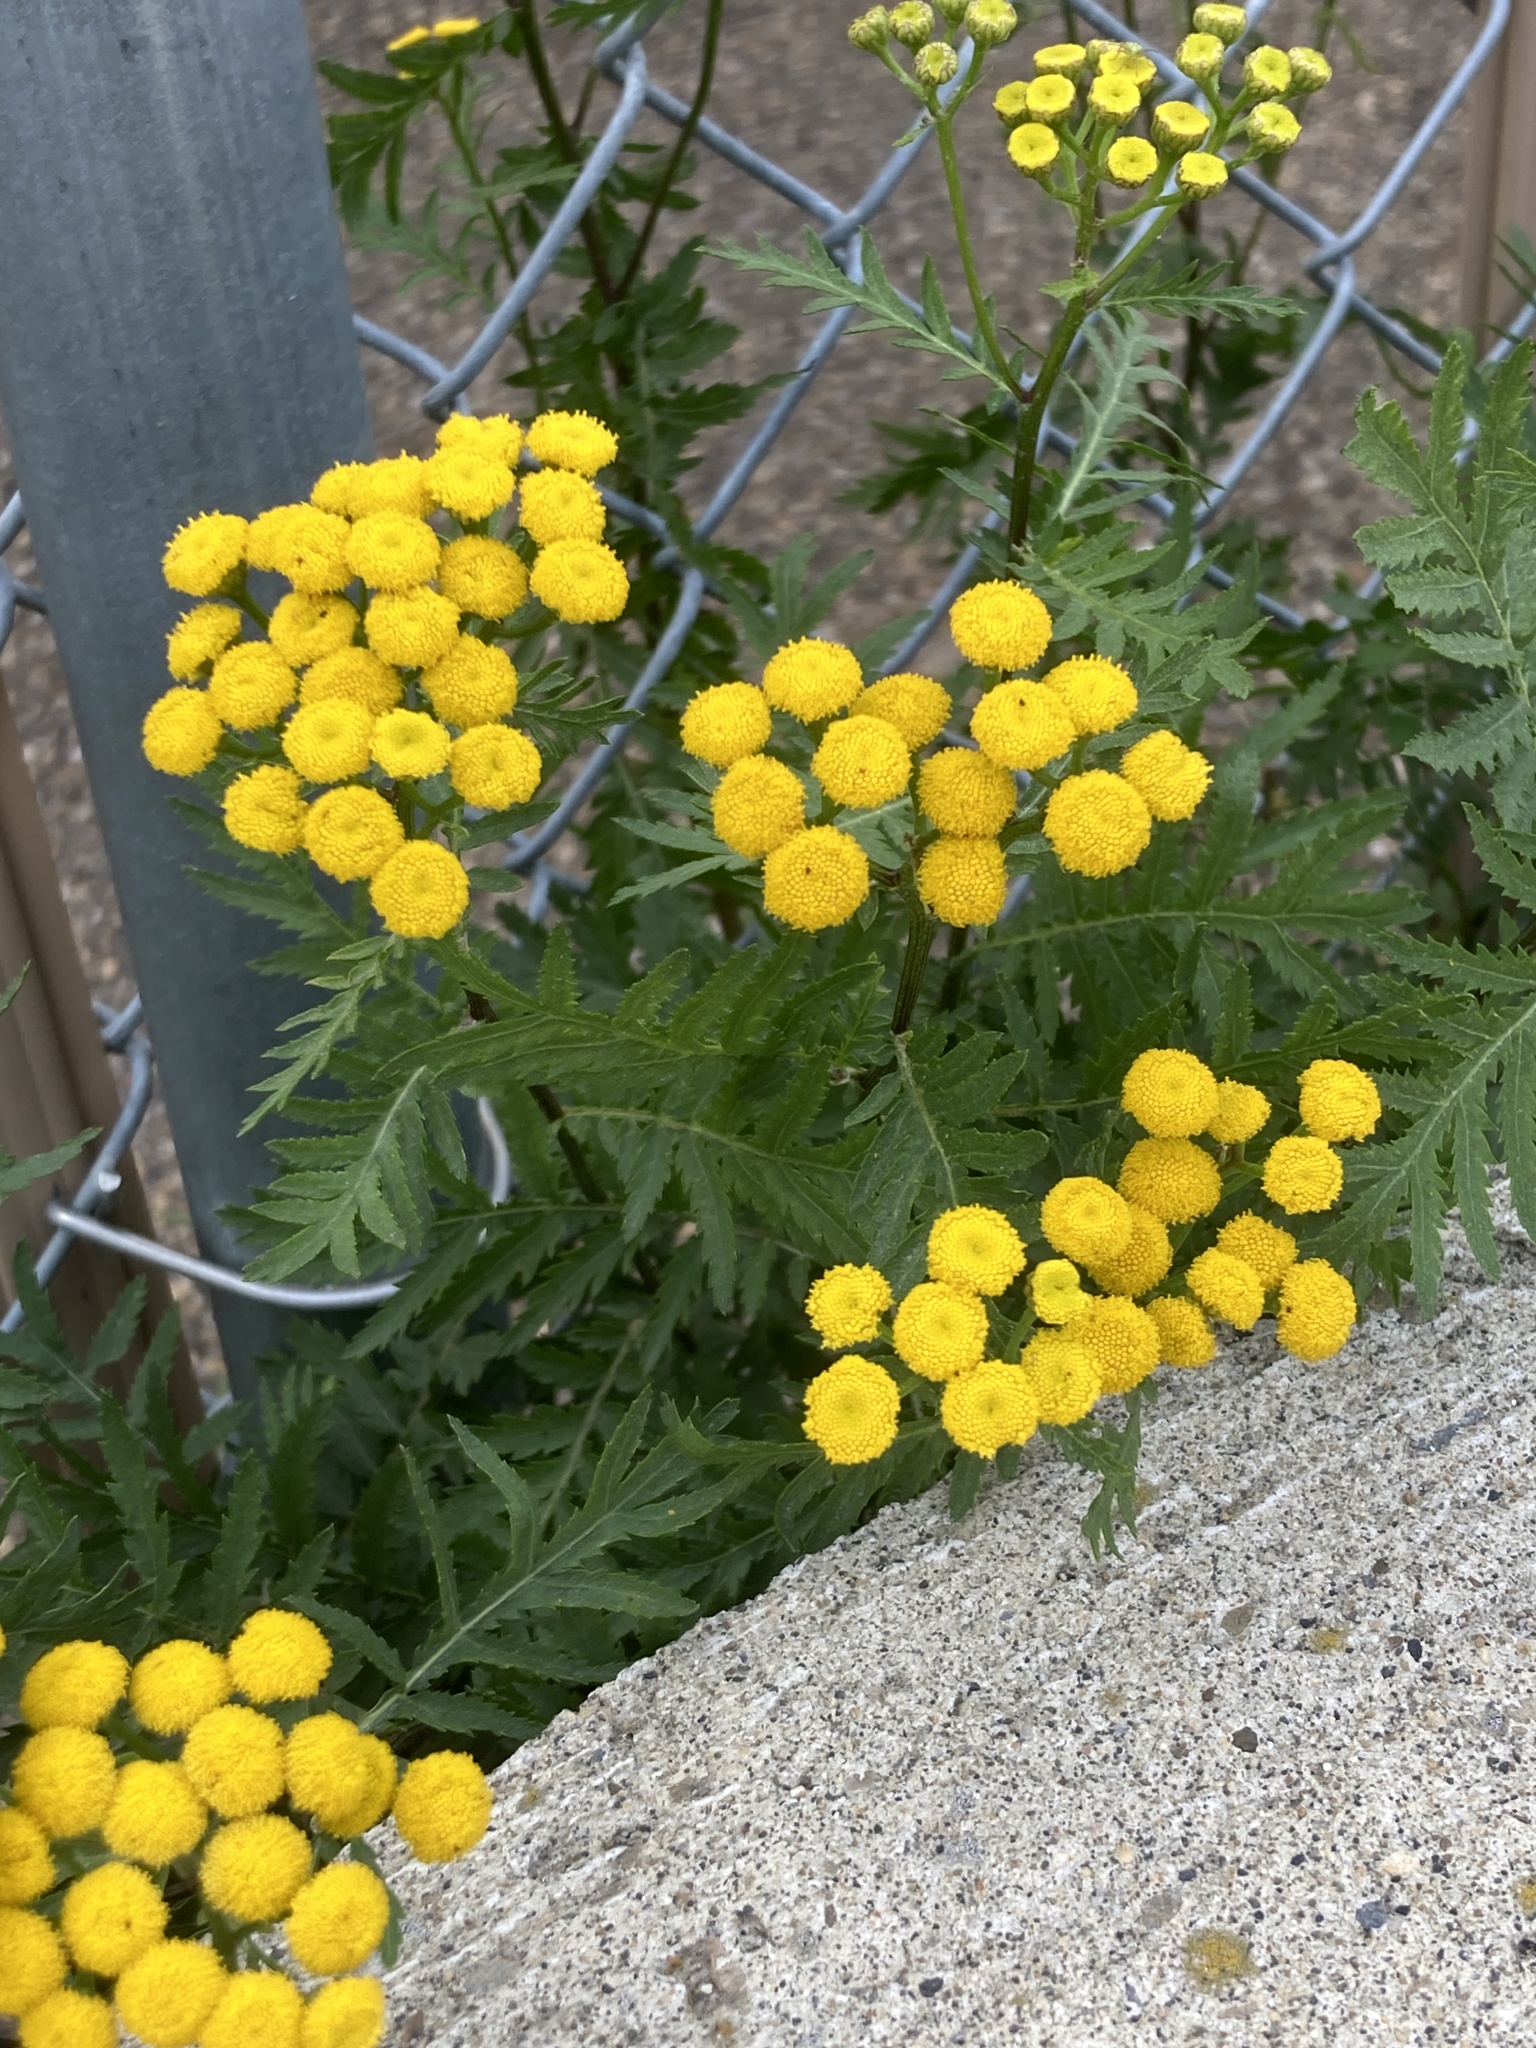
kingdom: Plantae
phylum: Tracheophyta
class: Magnoliopsida
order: Asterales
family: Asteraceae
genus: Tanacetum
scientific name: Tanacetum vulgare
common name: Common tansy
